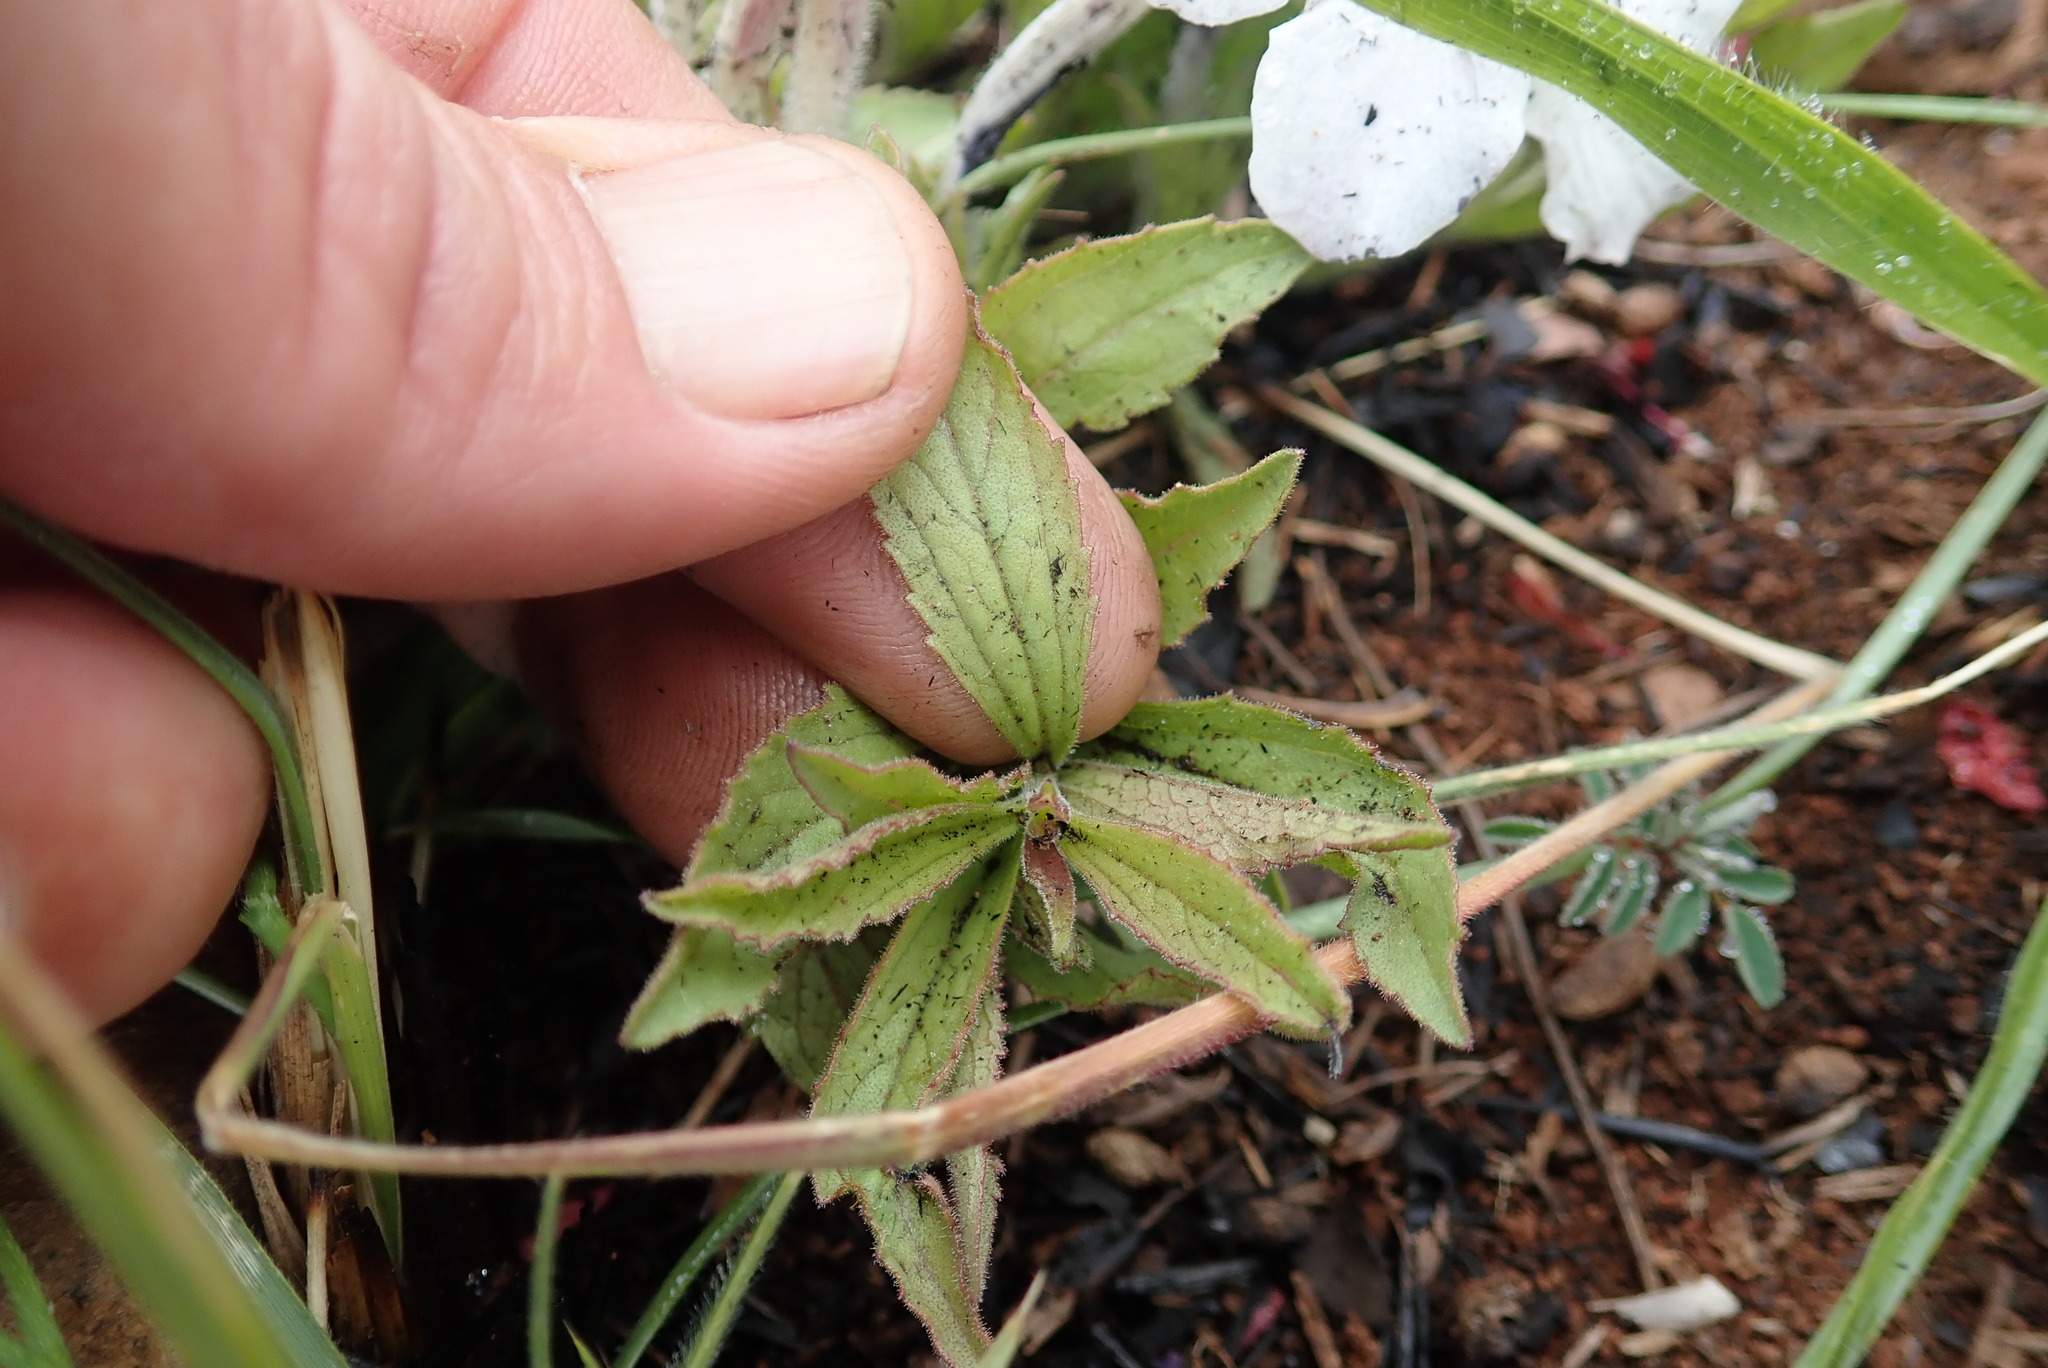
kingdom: Plantae
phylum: Tracheophyta
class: Magnoliopsida
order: Lamiales
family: Orobanchaceae
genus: Cycnium
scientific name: Cycnium adonense
